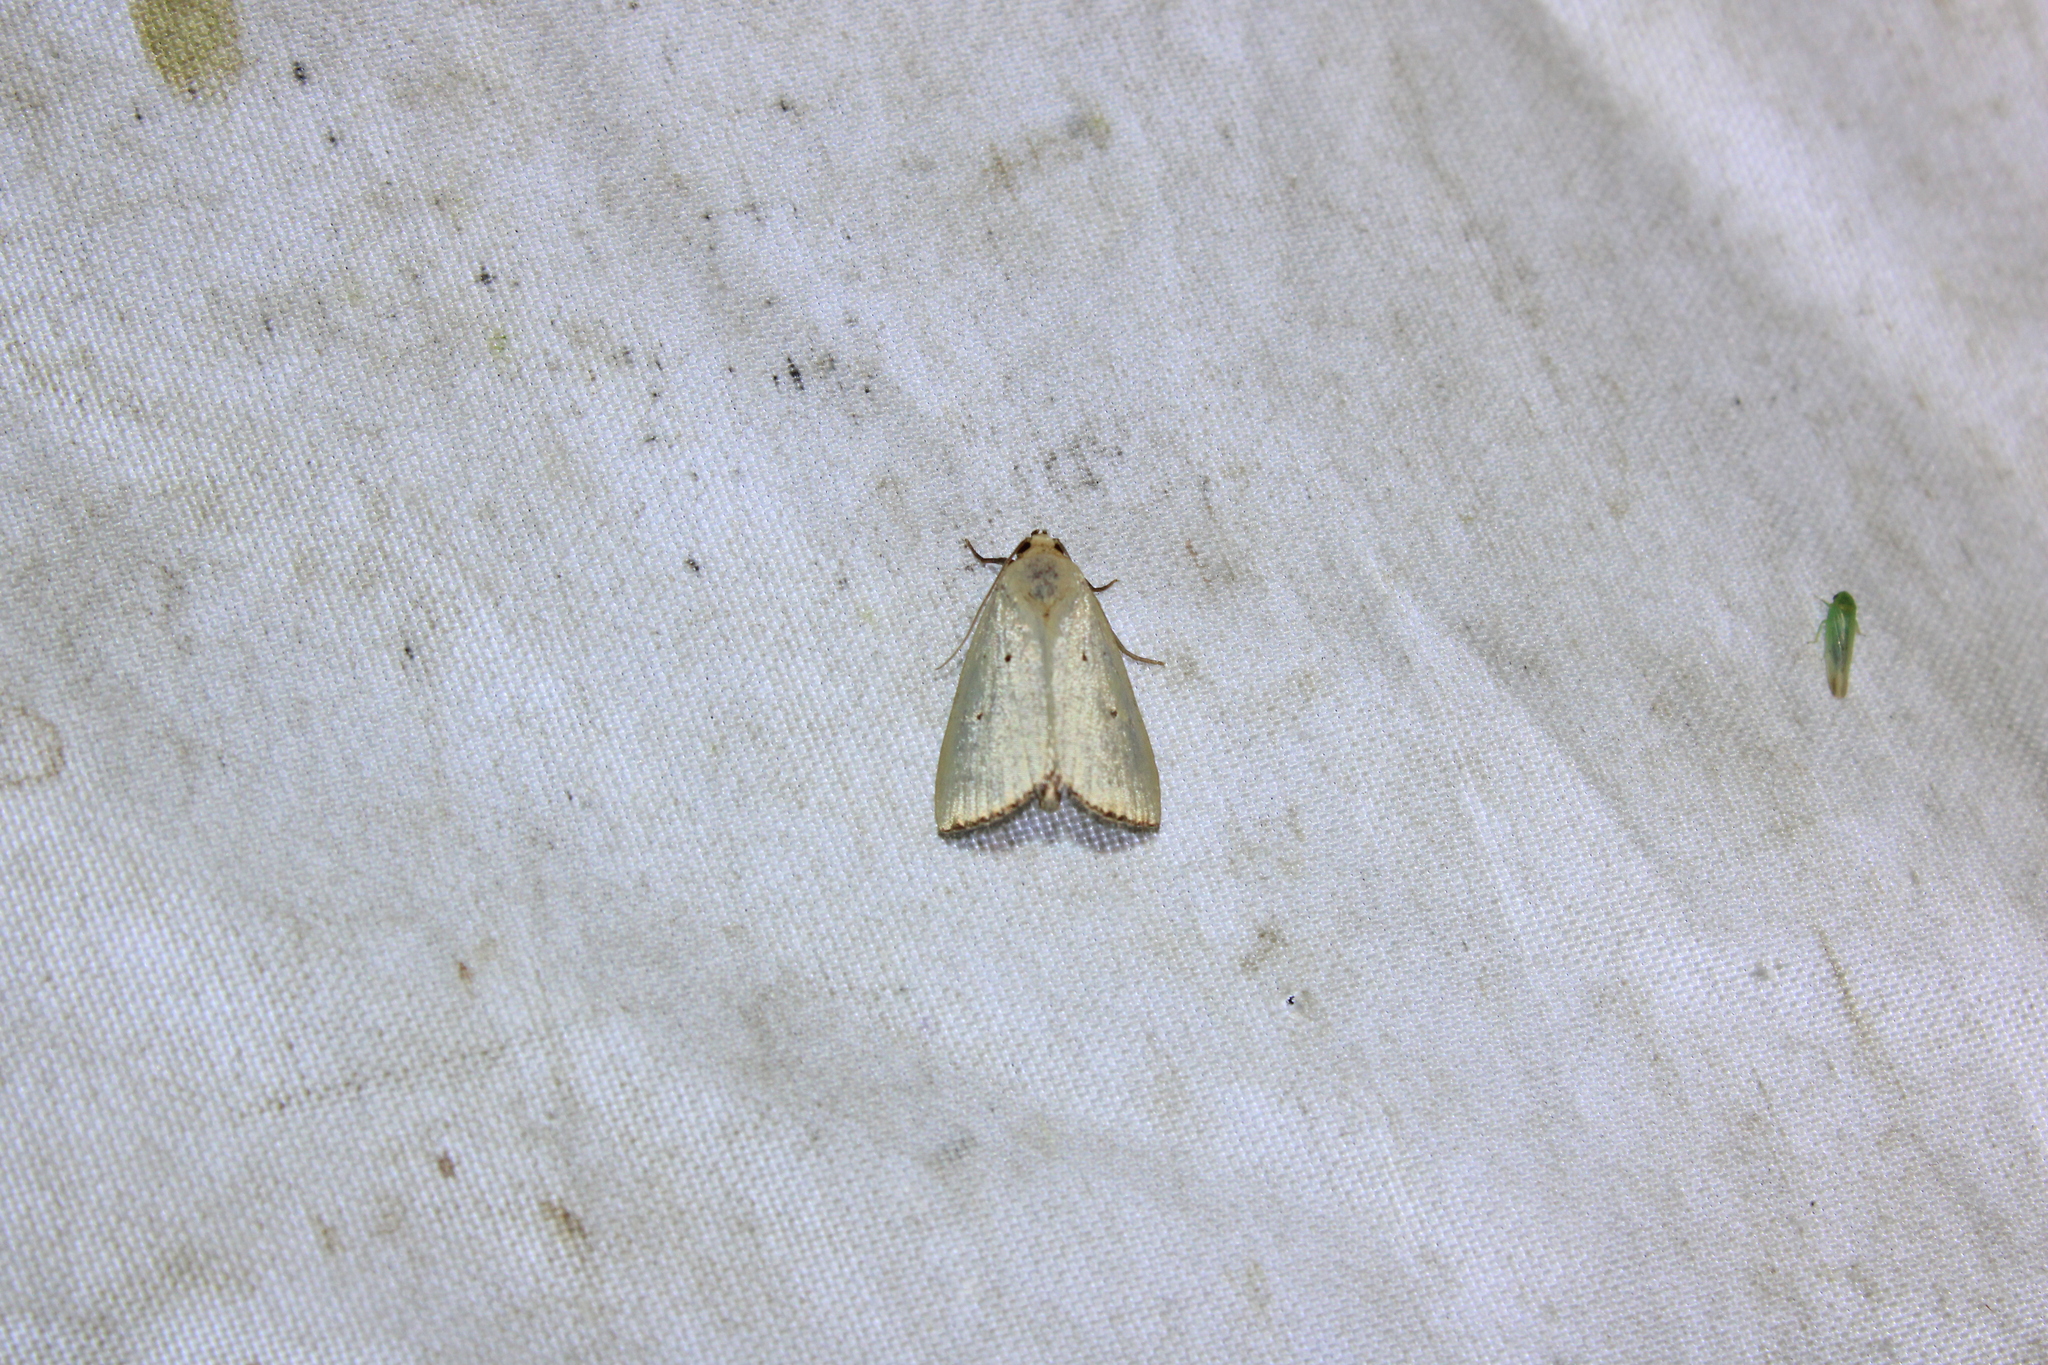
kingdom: Animalia
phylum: Arthropoda
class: Insecta
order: Lepidoptera
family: Noctuidae
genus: Marimatha
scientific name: Marimatha nigrofimbria
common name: Black-bordered lemon moth
